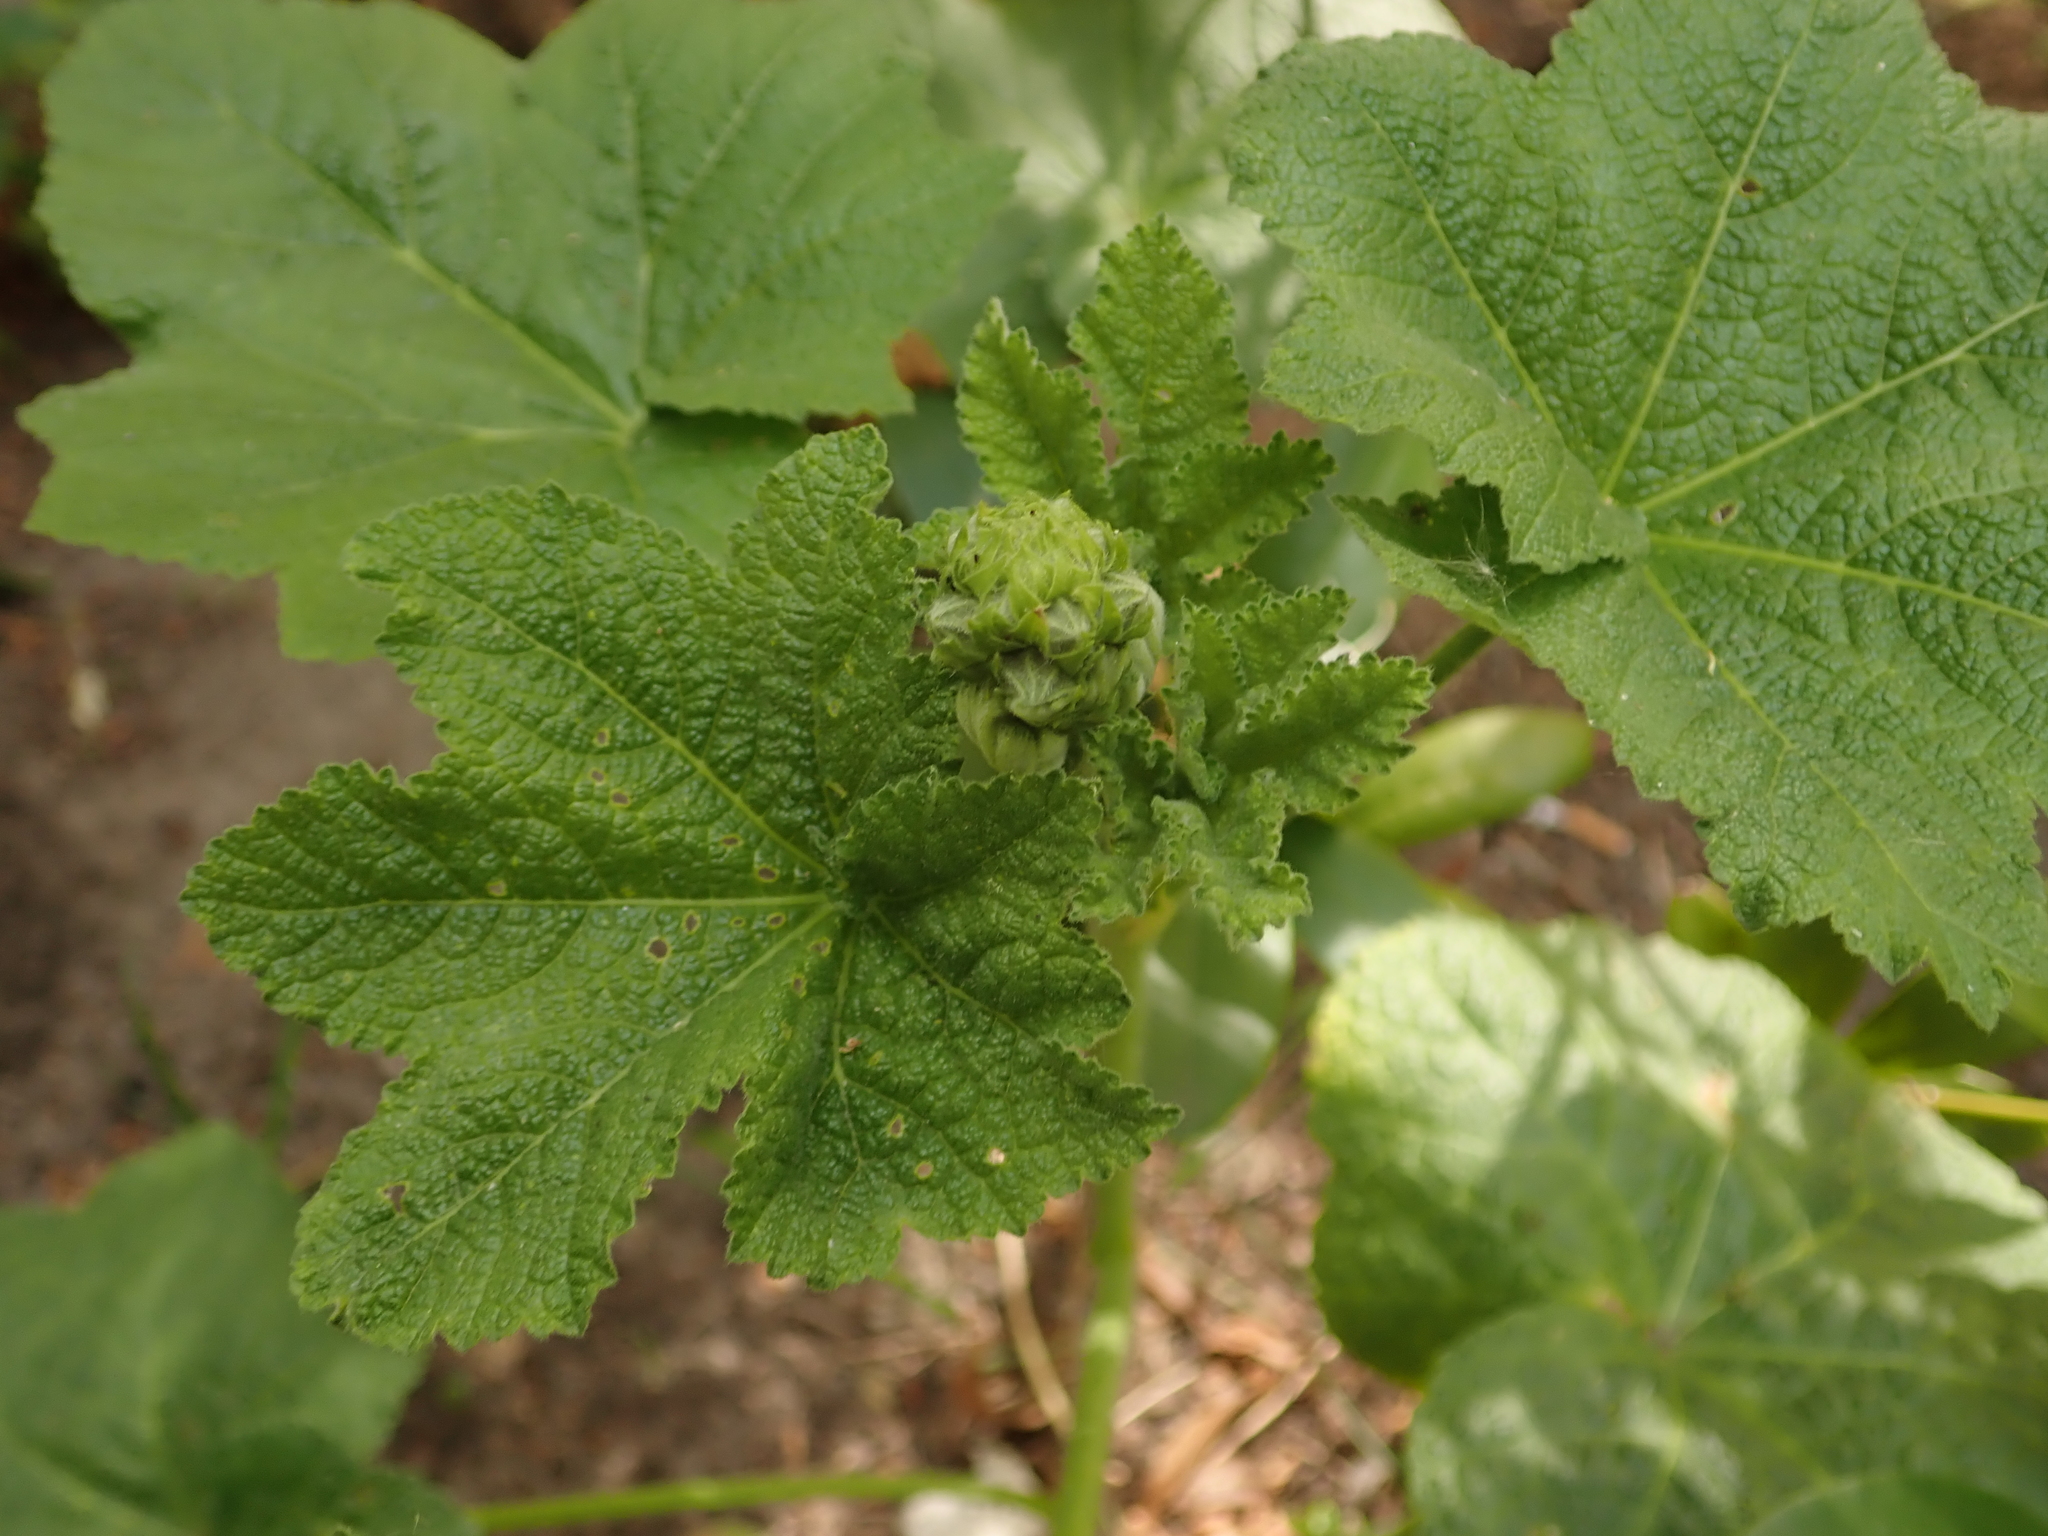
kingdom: Plantae
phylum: Tracheophyta
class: Magnoliopsida
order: Malvales
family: Malvaceae
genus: Alcea
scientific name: Alcea rosea
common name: Hollyhock
